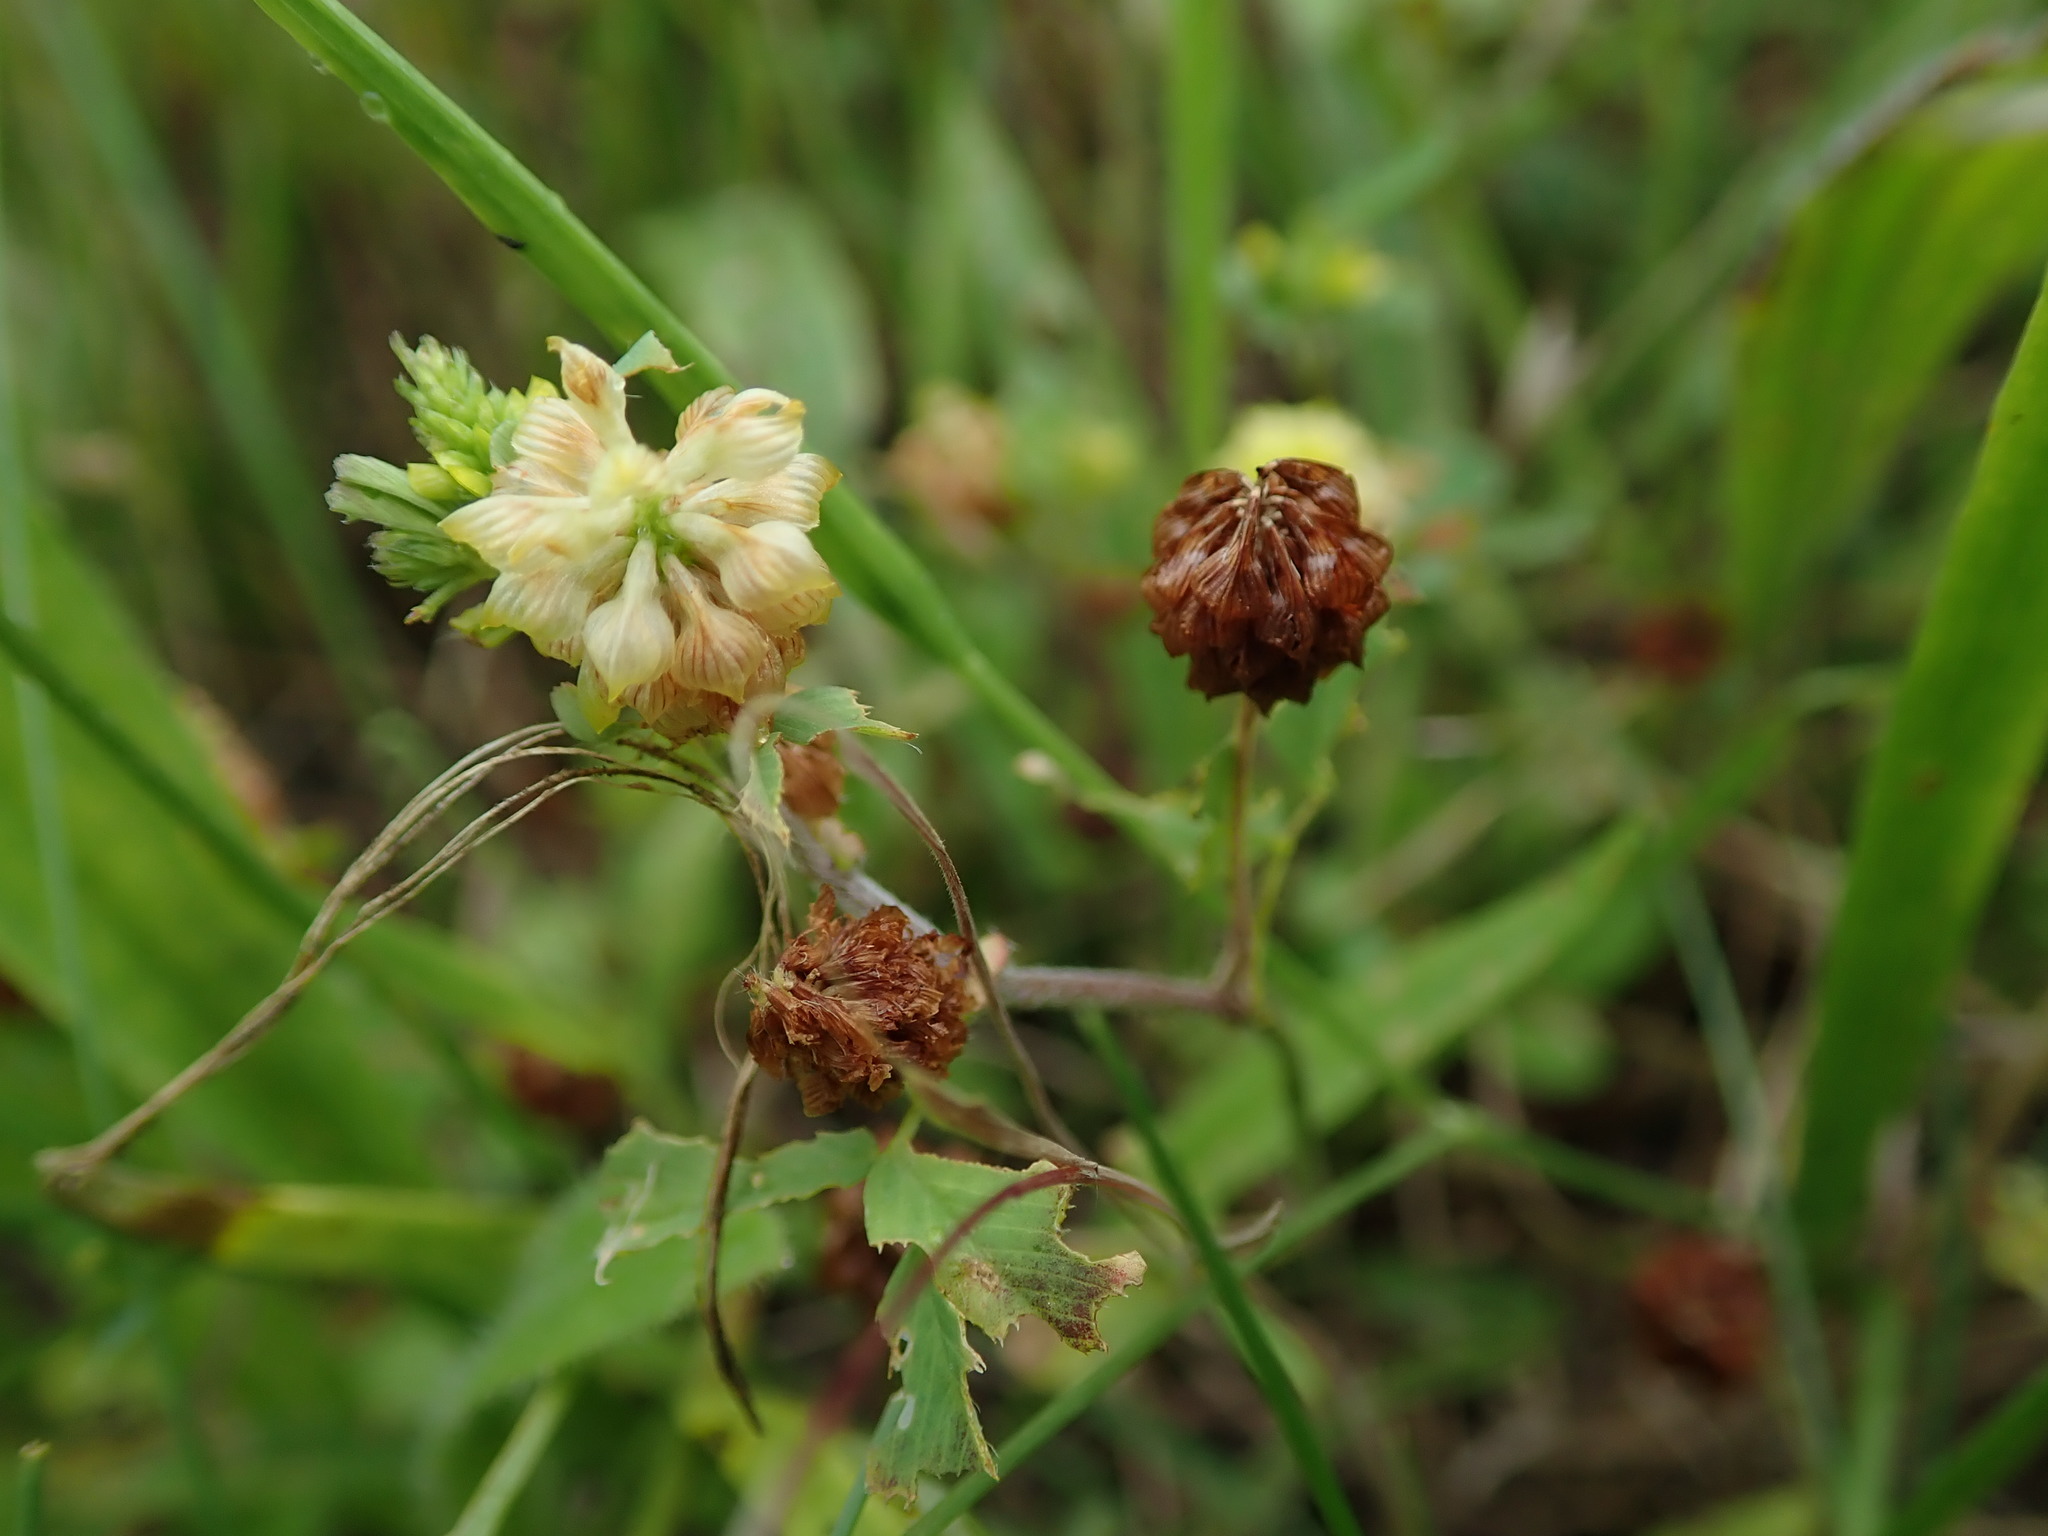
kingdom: Plantae
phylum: Tracheophyta
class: Magnoliopsida
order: Fabales
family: Fabaceae
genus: Trifolium
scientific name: Trifolium campestre
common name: Field clover
